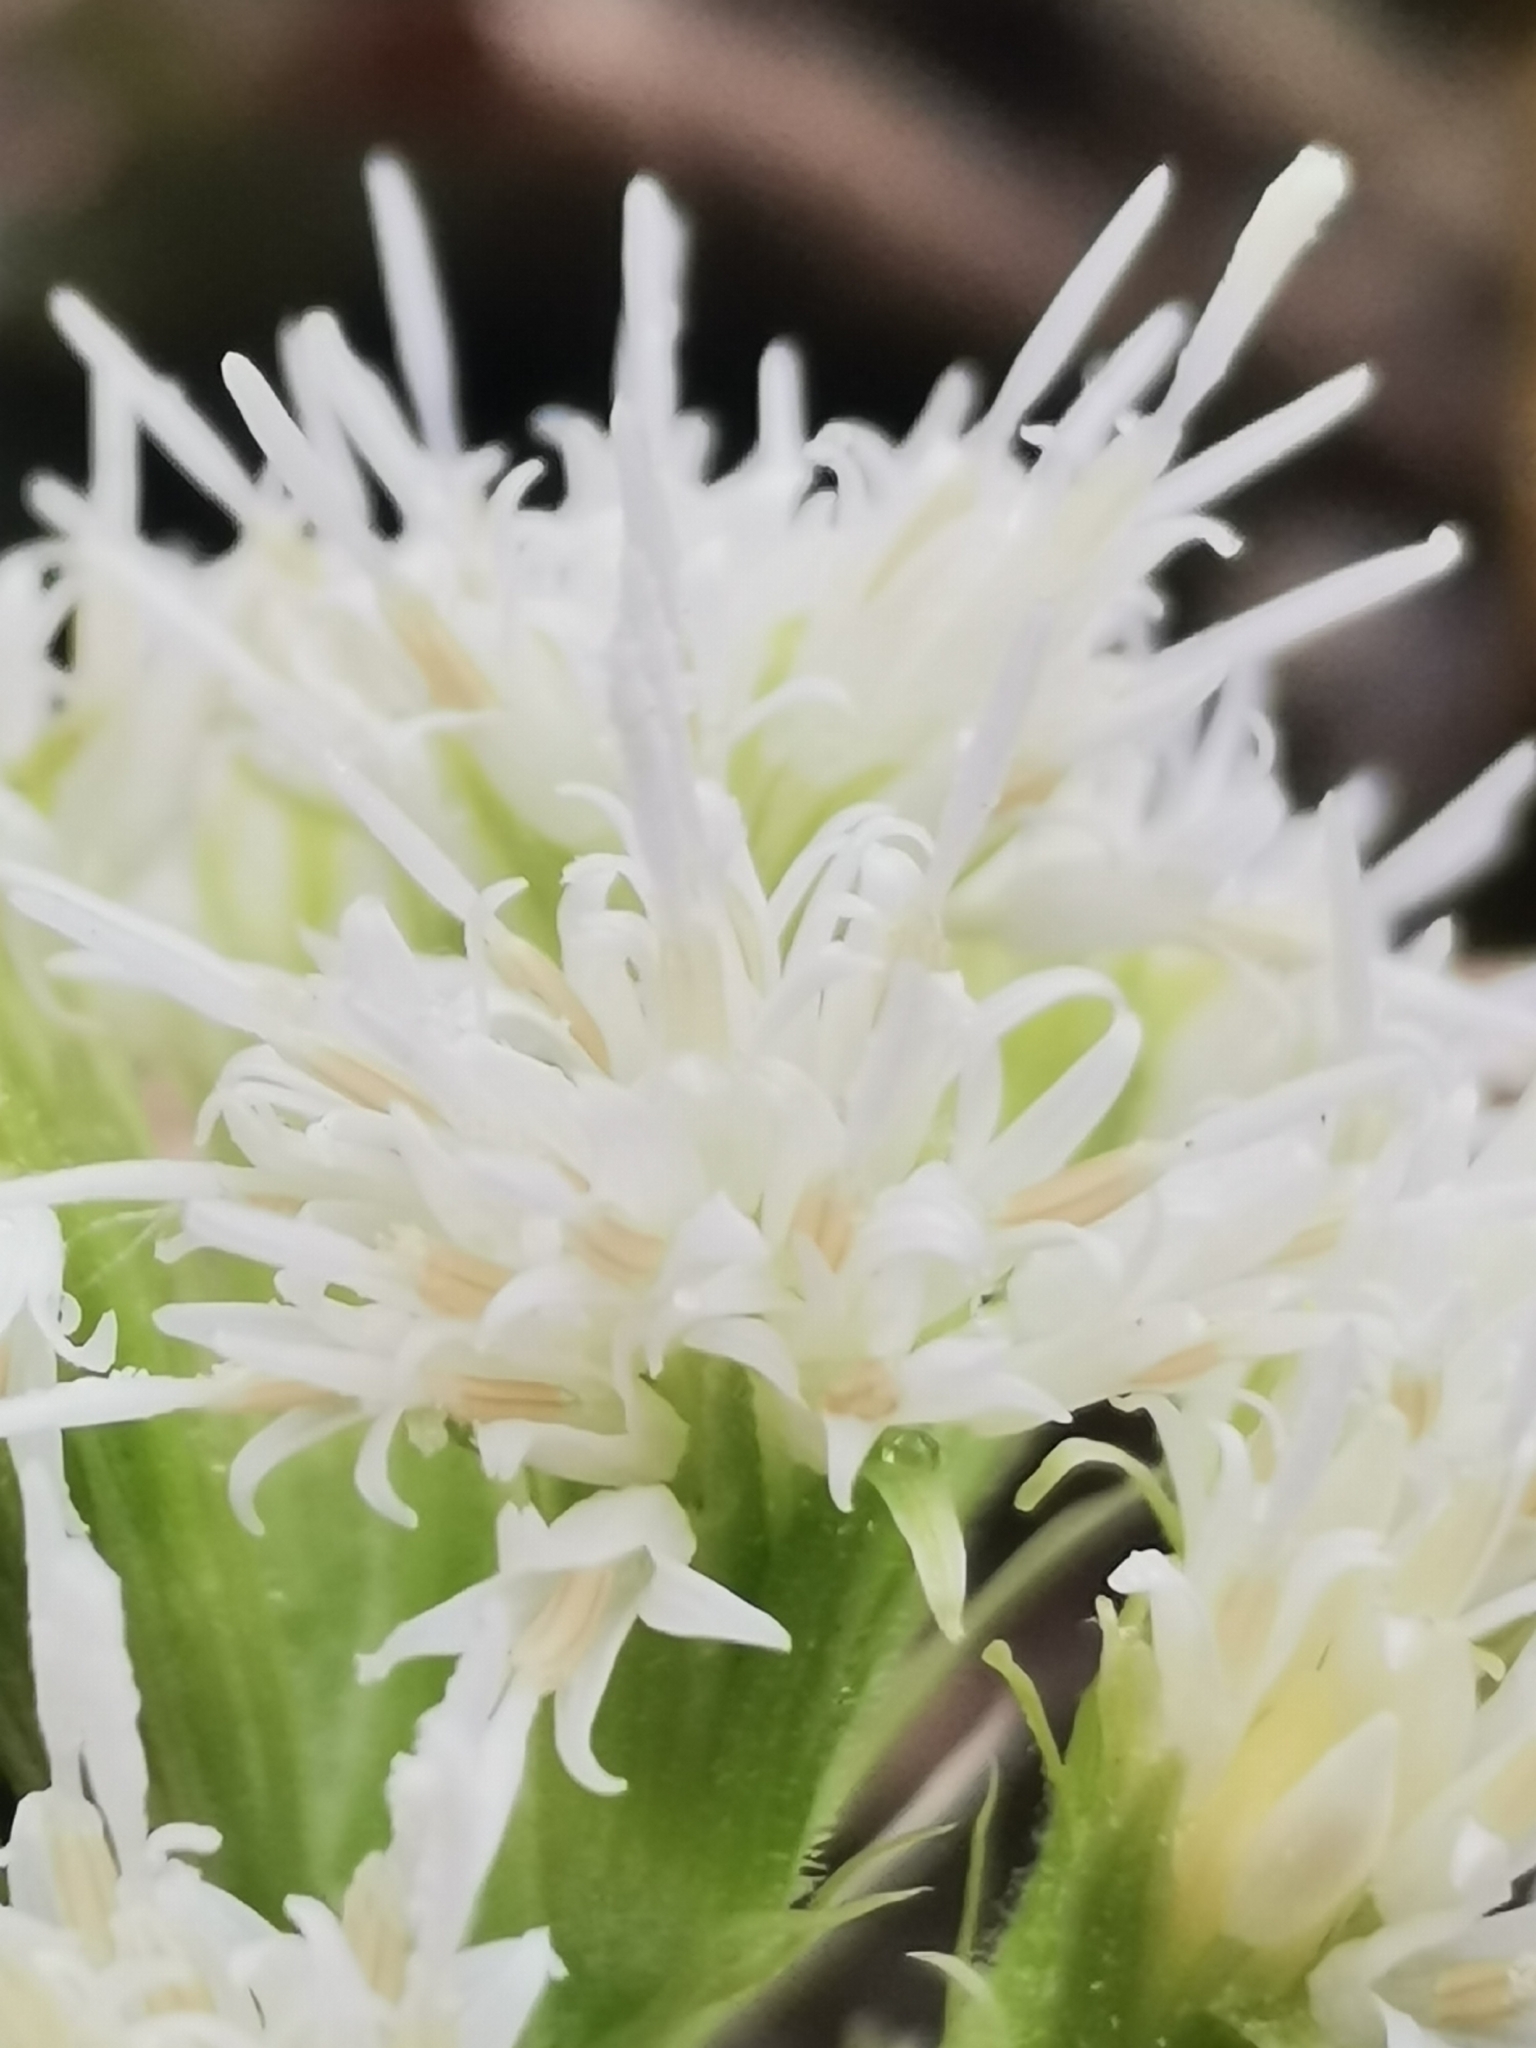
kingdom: Plantae
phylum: Tracheophyta
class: Magnoliopsida
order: Asterales
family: Asteraceae
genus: Petasites
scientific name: Petasites albus
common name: White butterbur
